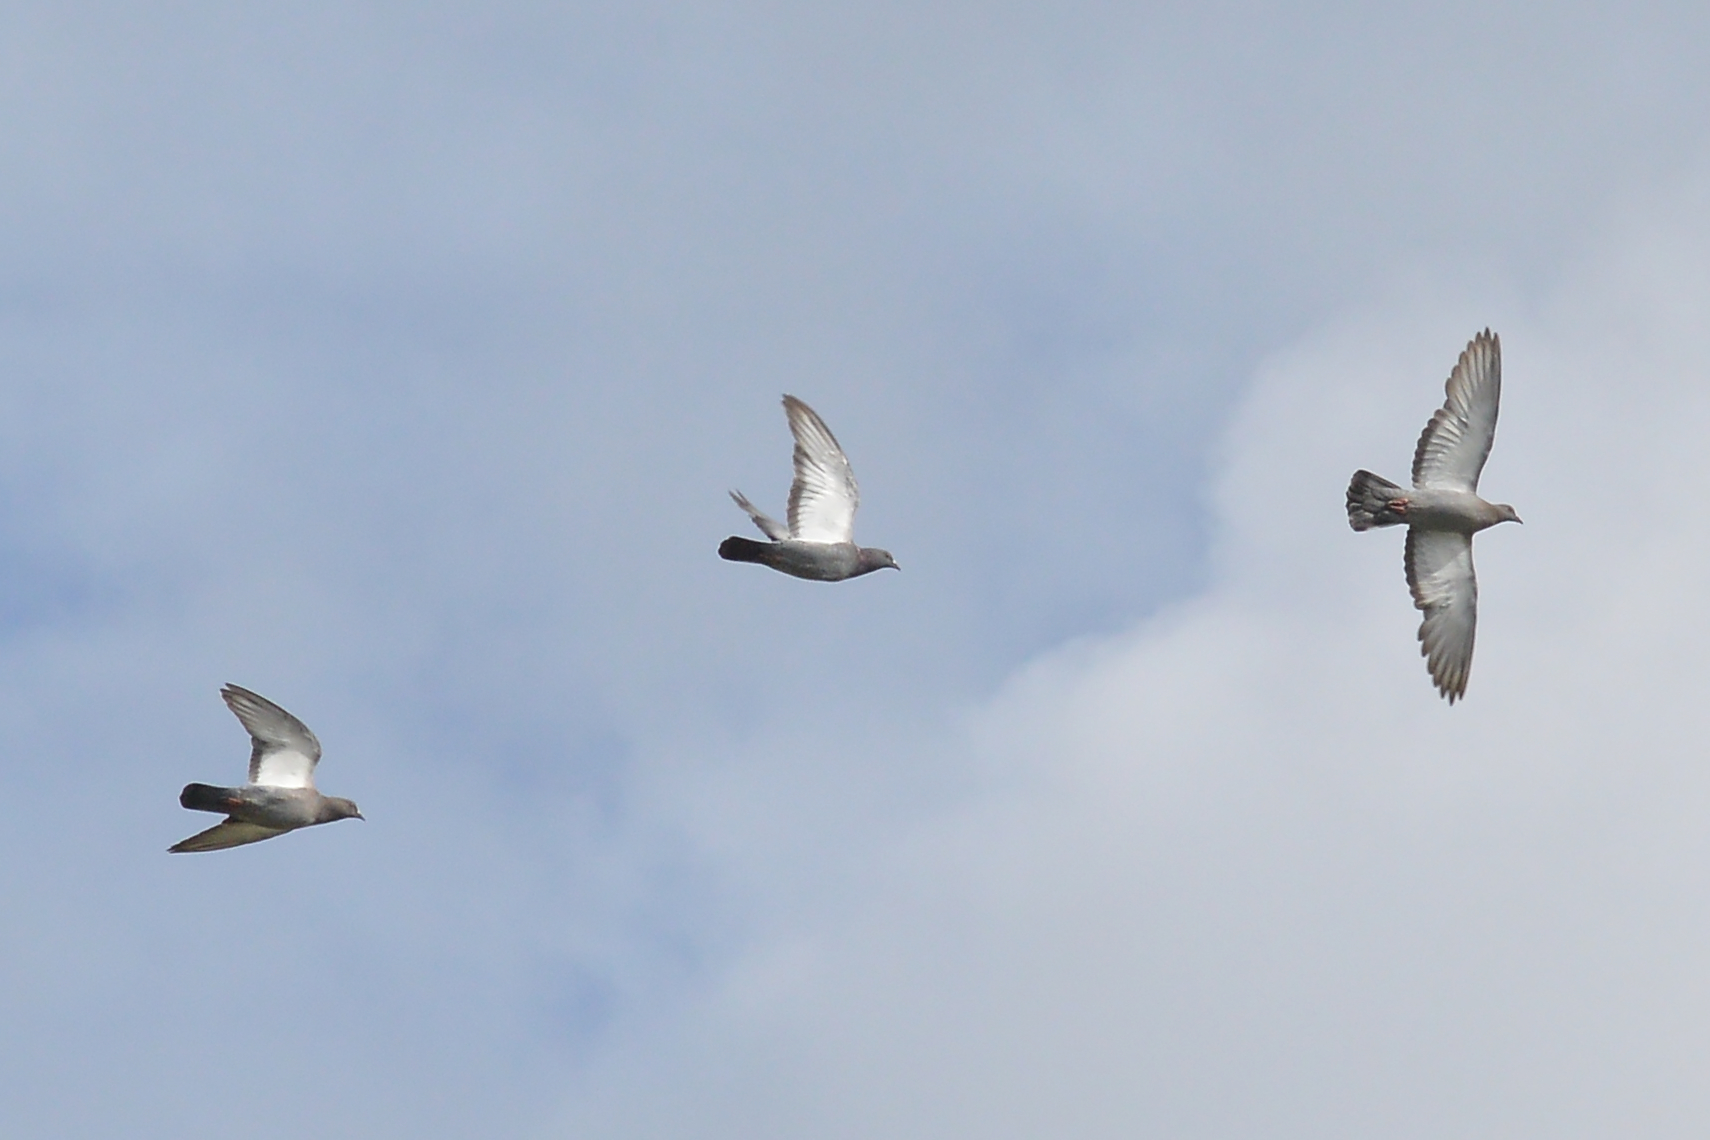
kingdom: Animalia
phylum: Chordata
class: Aves
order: Columbiformes
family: Columbidae
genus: Columba
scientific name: Columba livia
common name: Rock pigeon
